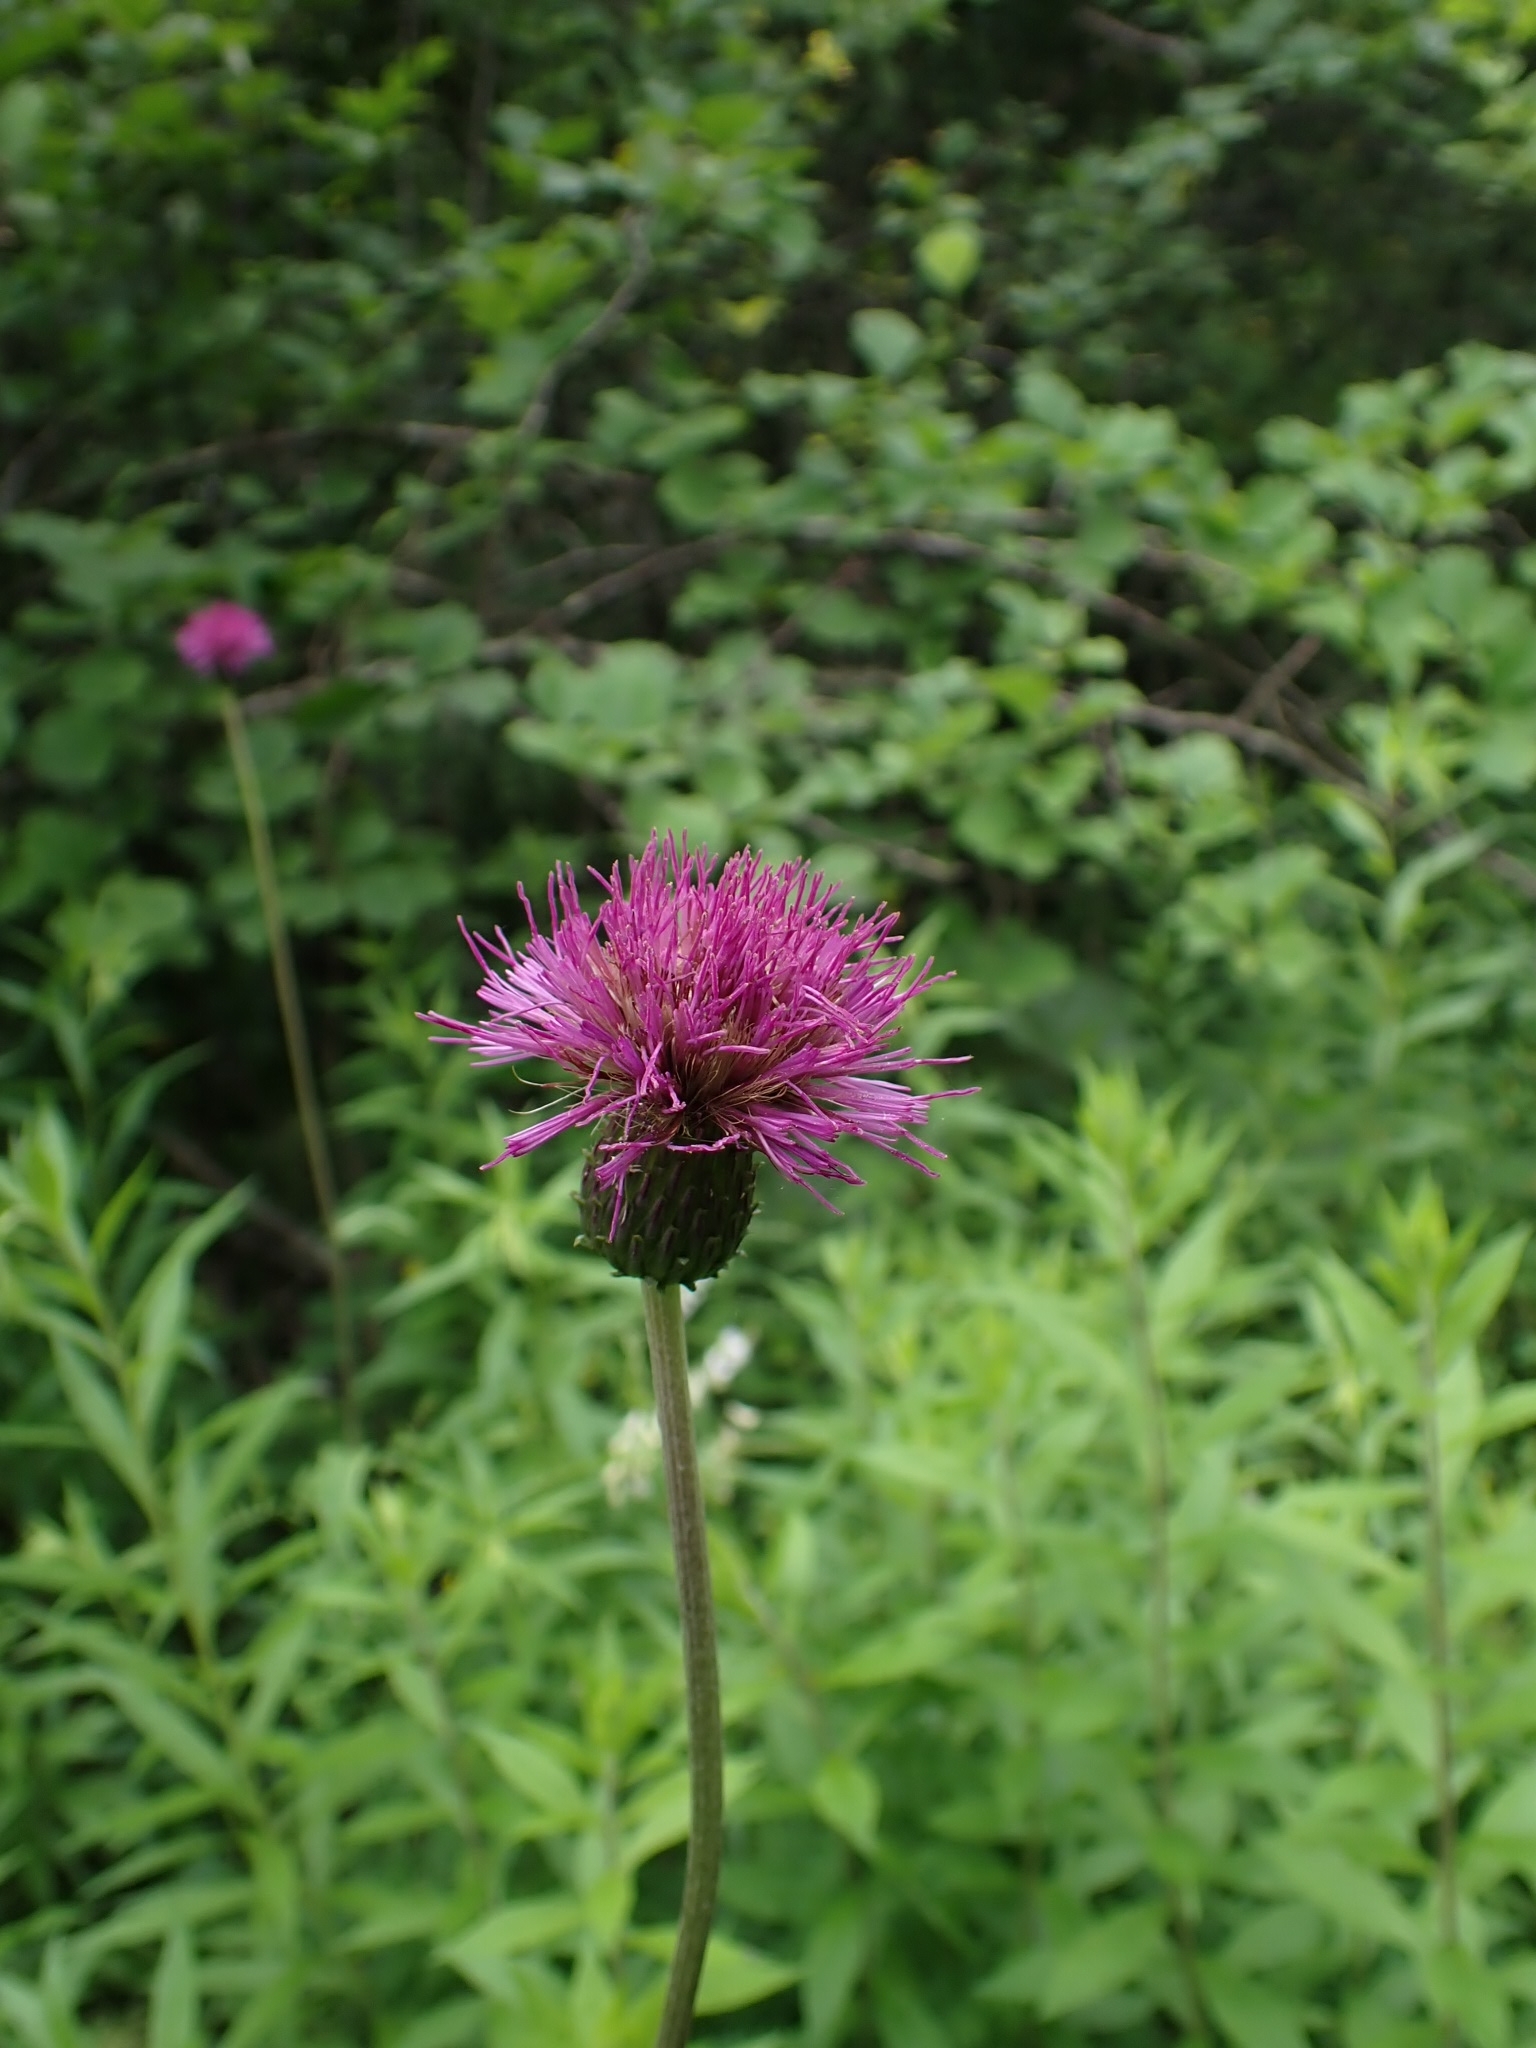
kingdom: Plantae
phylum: Tracheophyta
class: Magnoliopsida
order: Asterales
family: Asteraceae
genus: Cirsium
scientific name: Cirsium heterophyllum
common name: Melancholy thistle
